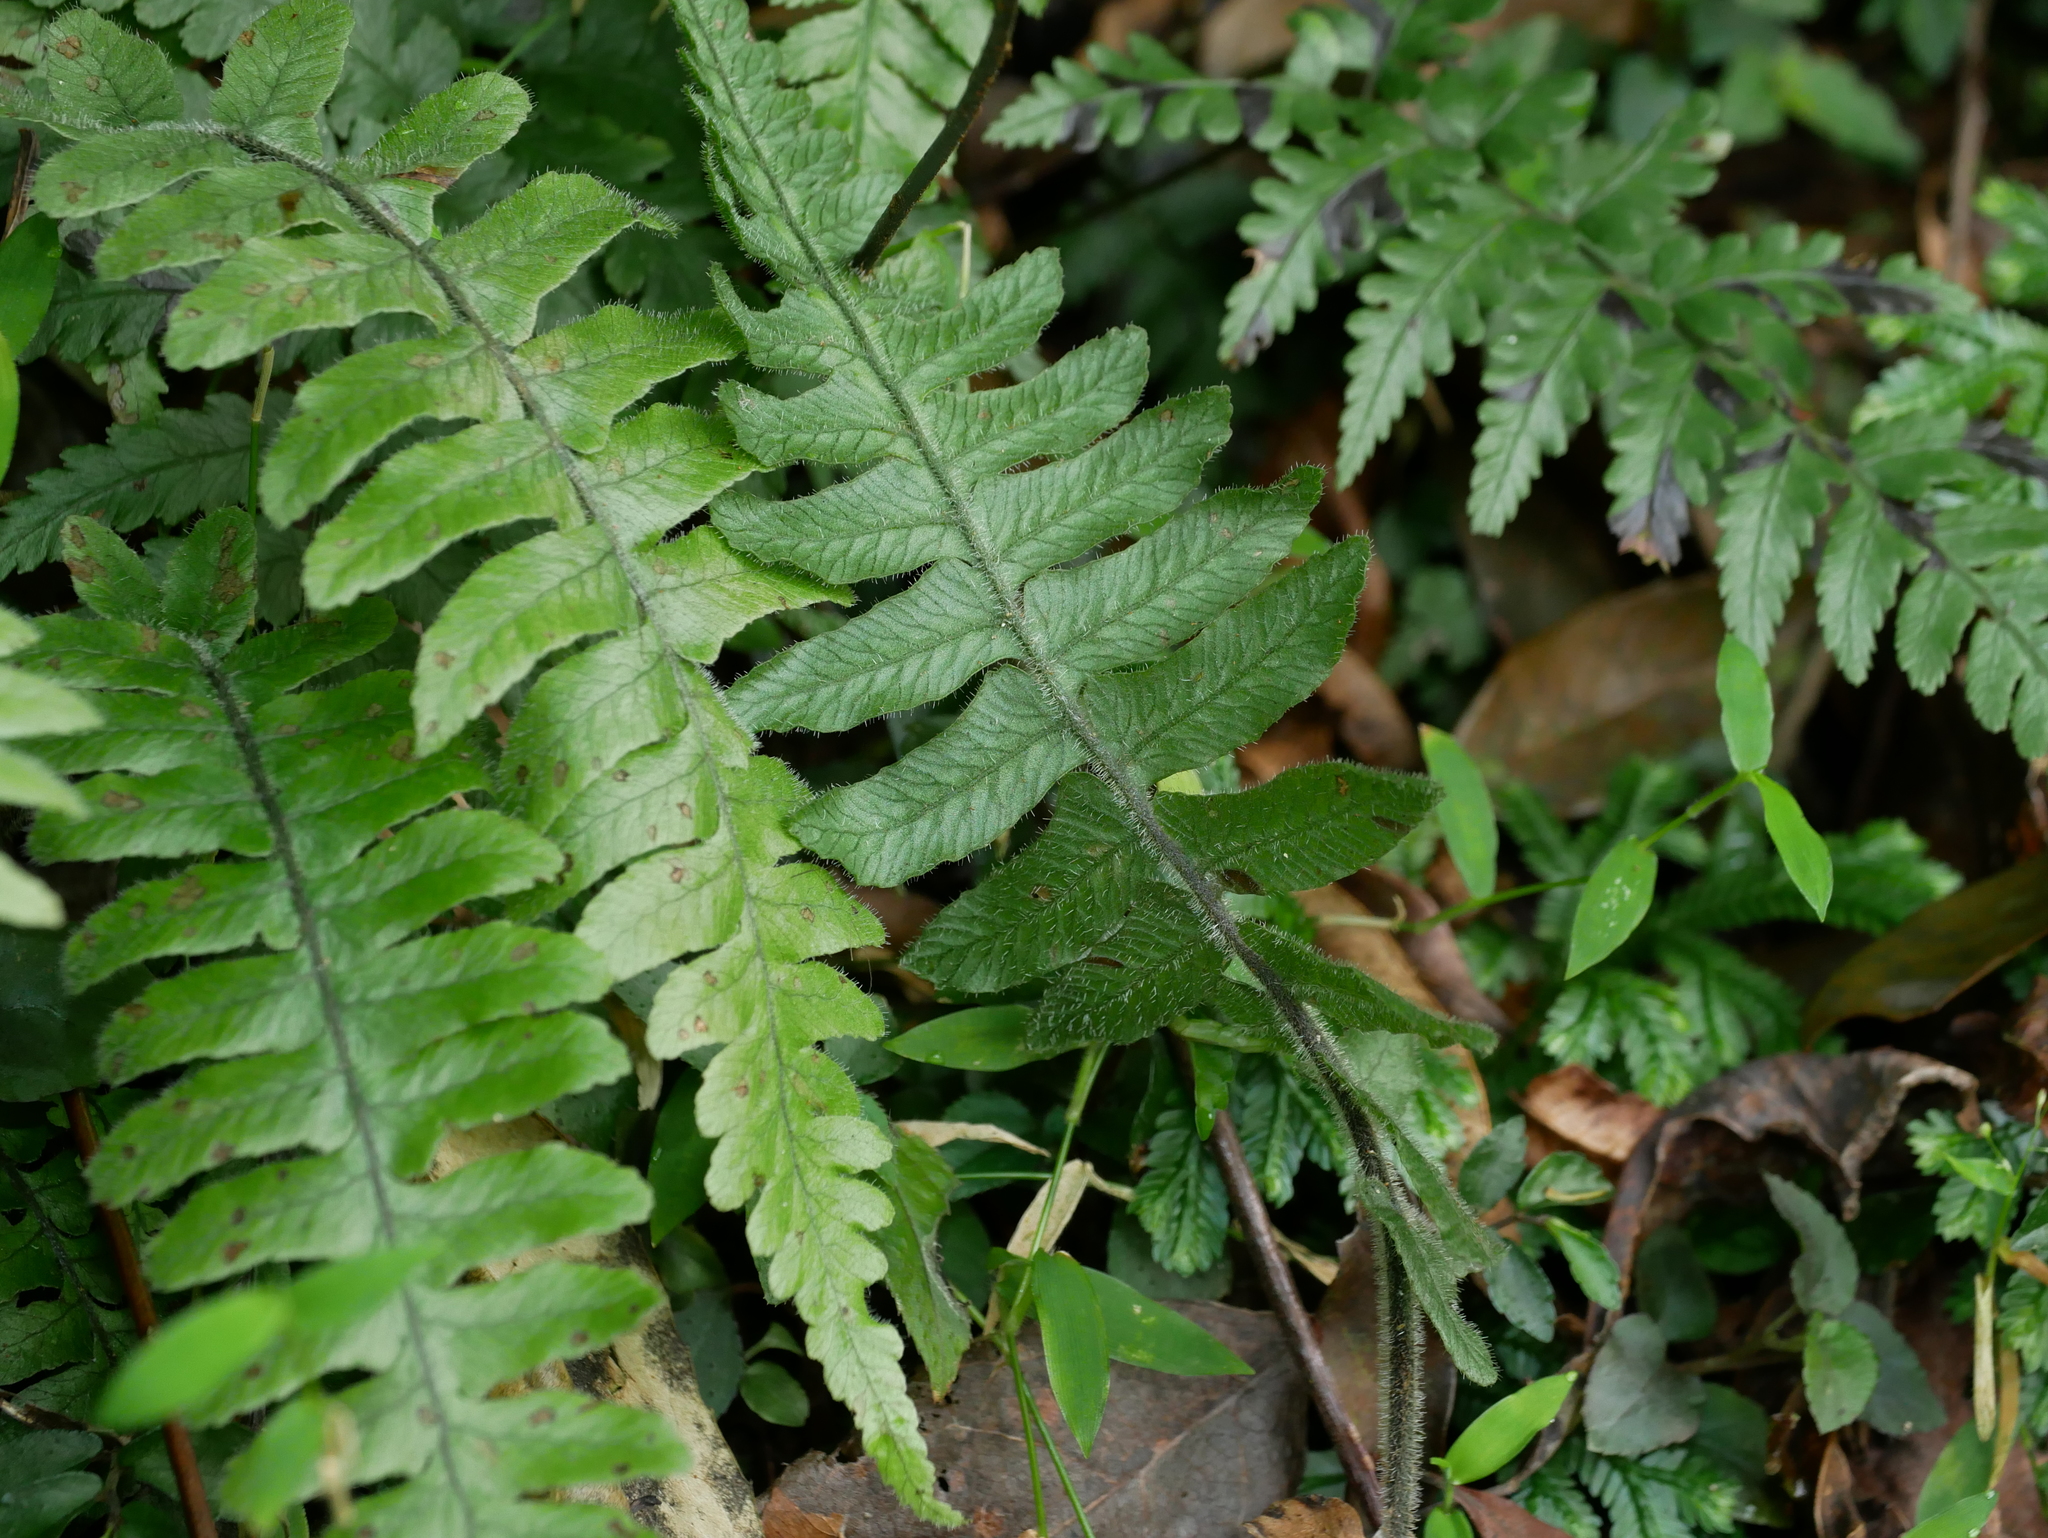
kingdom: Plantae
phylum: Tracheophyta
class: Polypodiopsida
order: Polypodiales
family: Athyriaceae
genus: Diplazium
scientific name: Diplazium pullingeri
